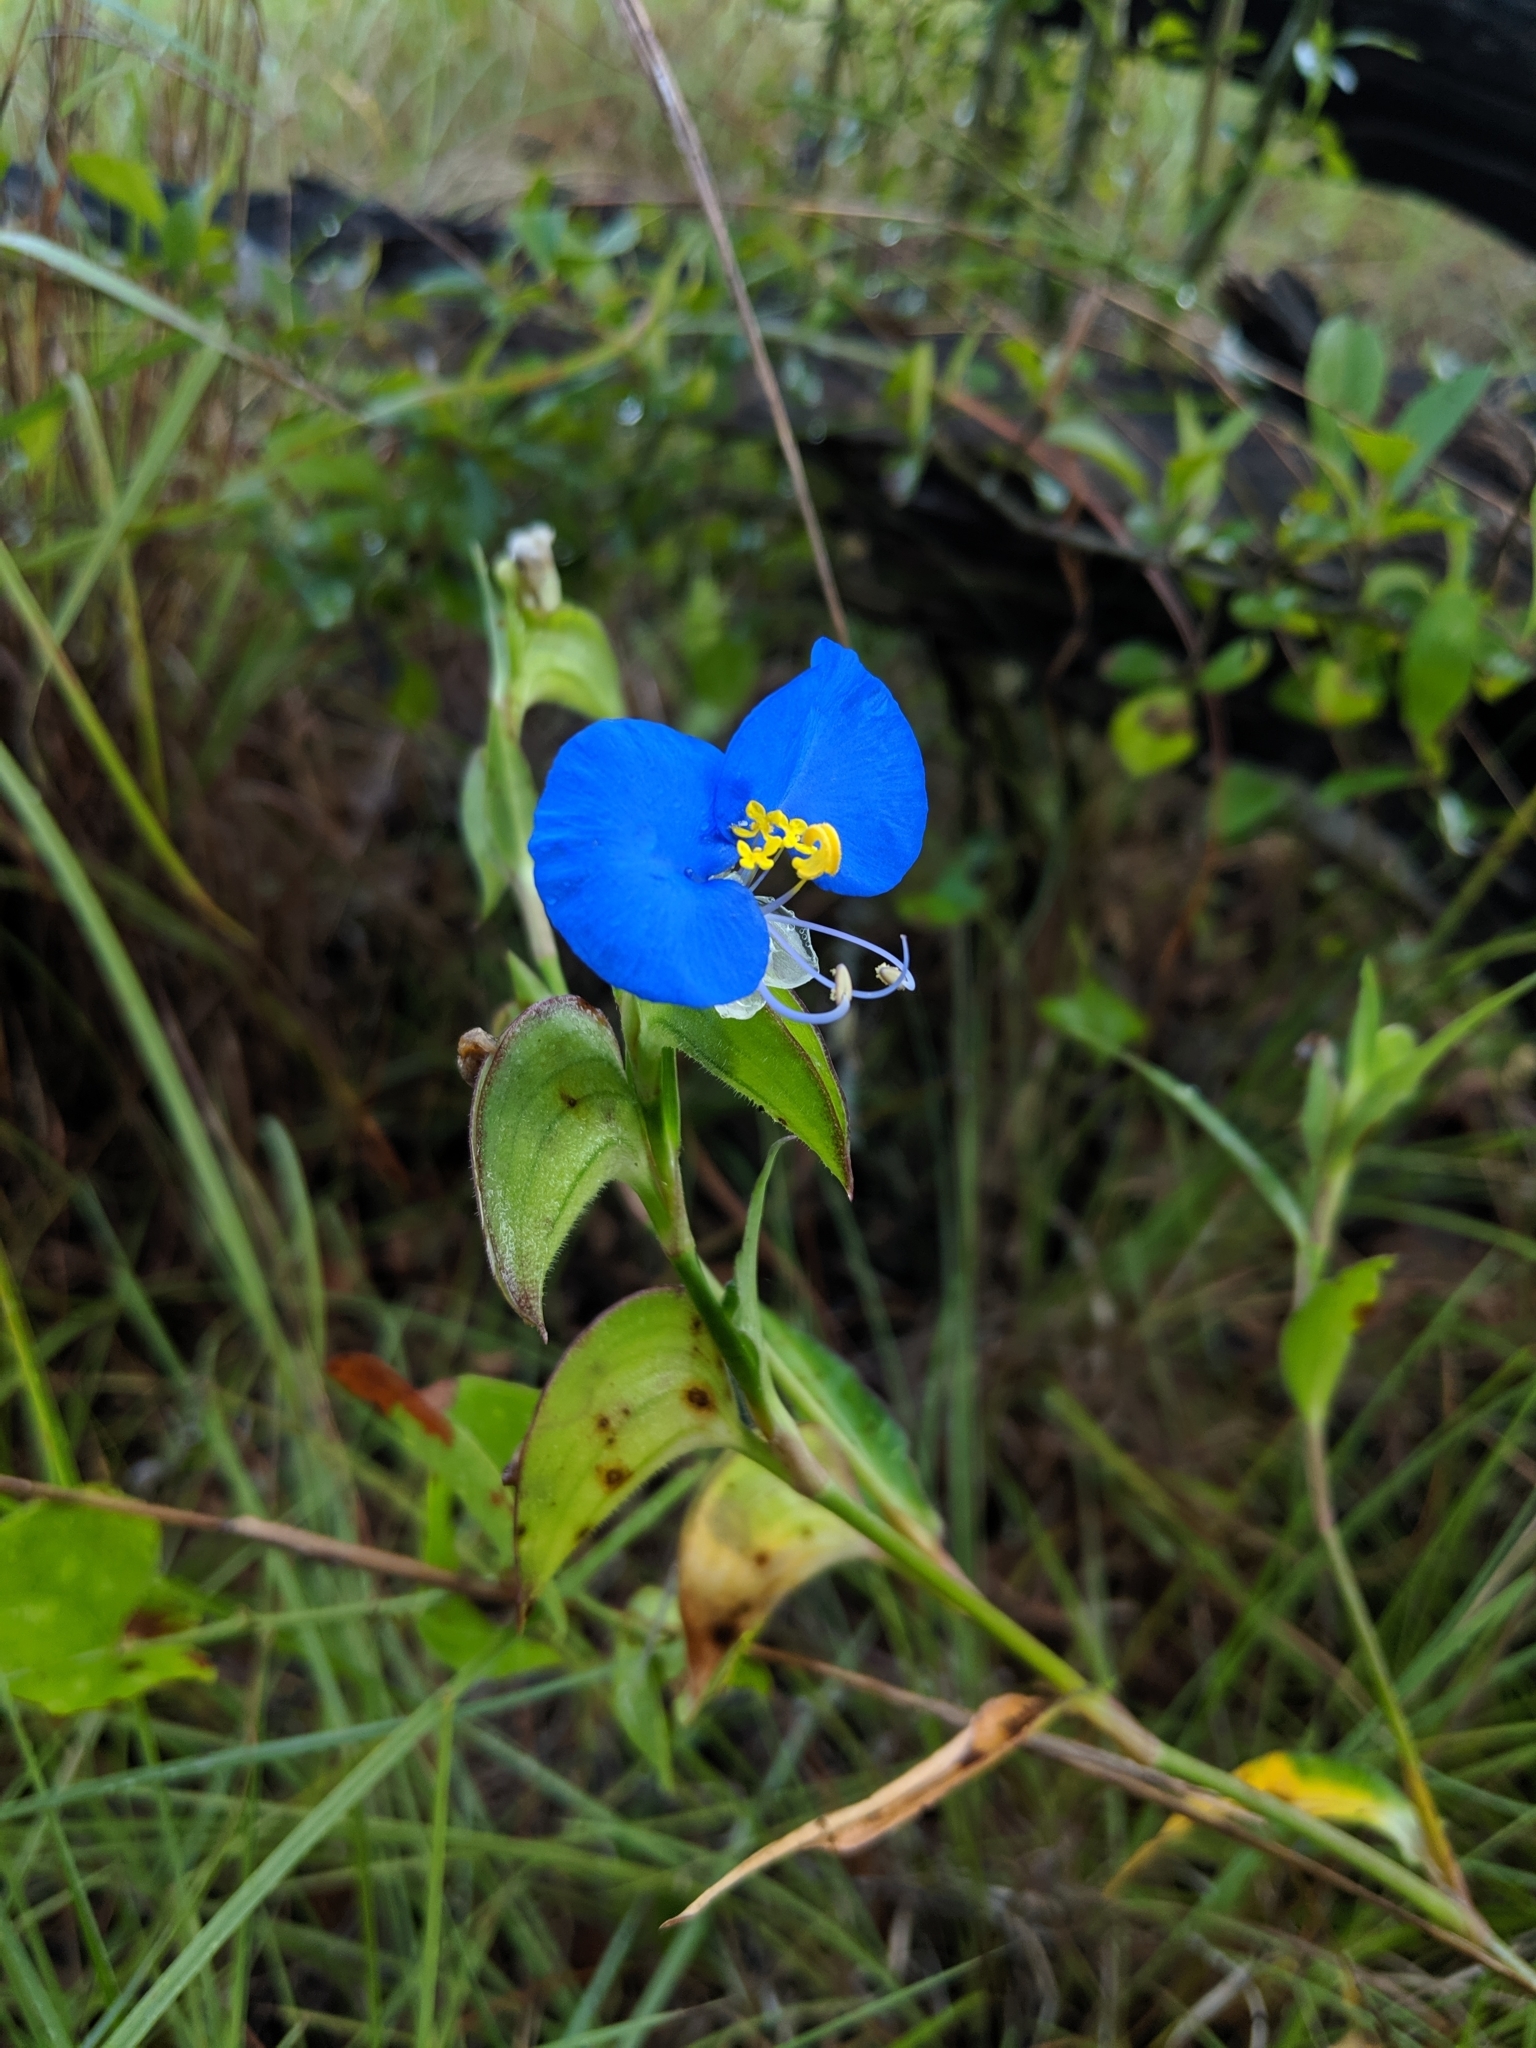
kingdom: Plantae
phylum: Tracheophyta
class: Liliopsida
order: Commelinales
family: Commelinaceae
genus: Commelina
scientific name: Commelina erecta
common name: Blousel blommetjie
